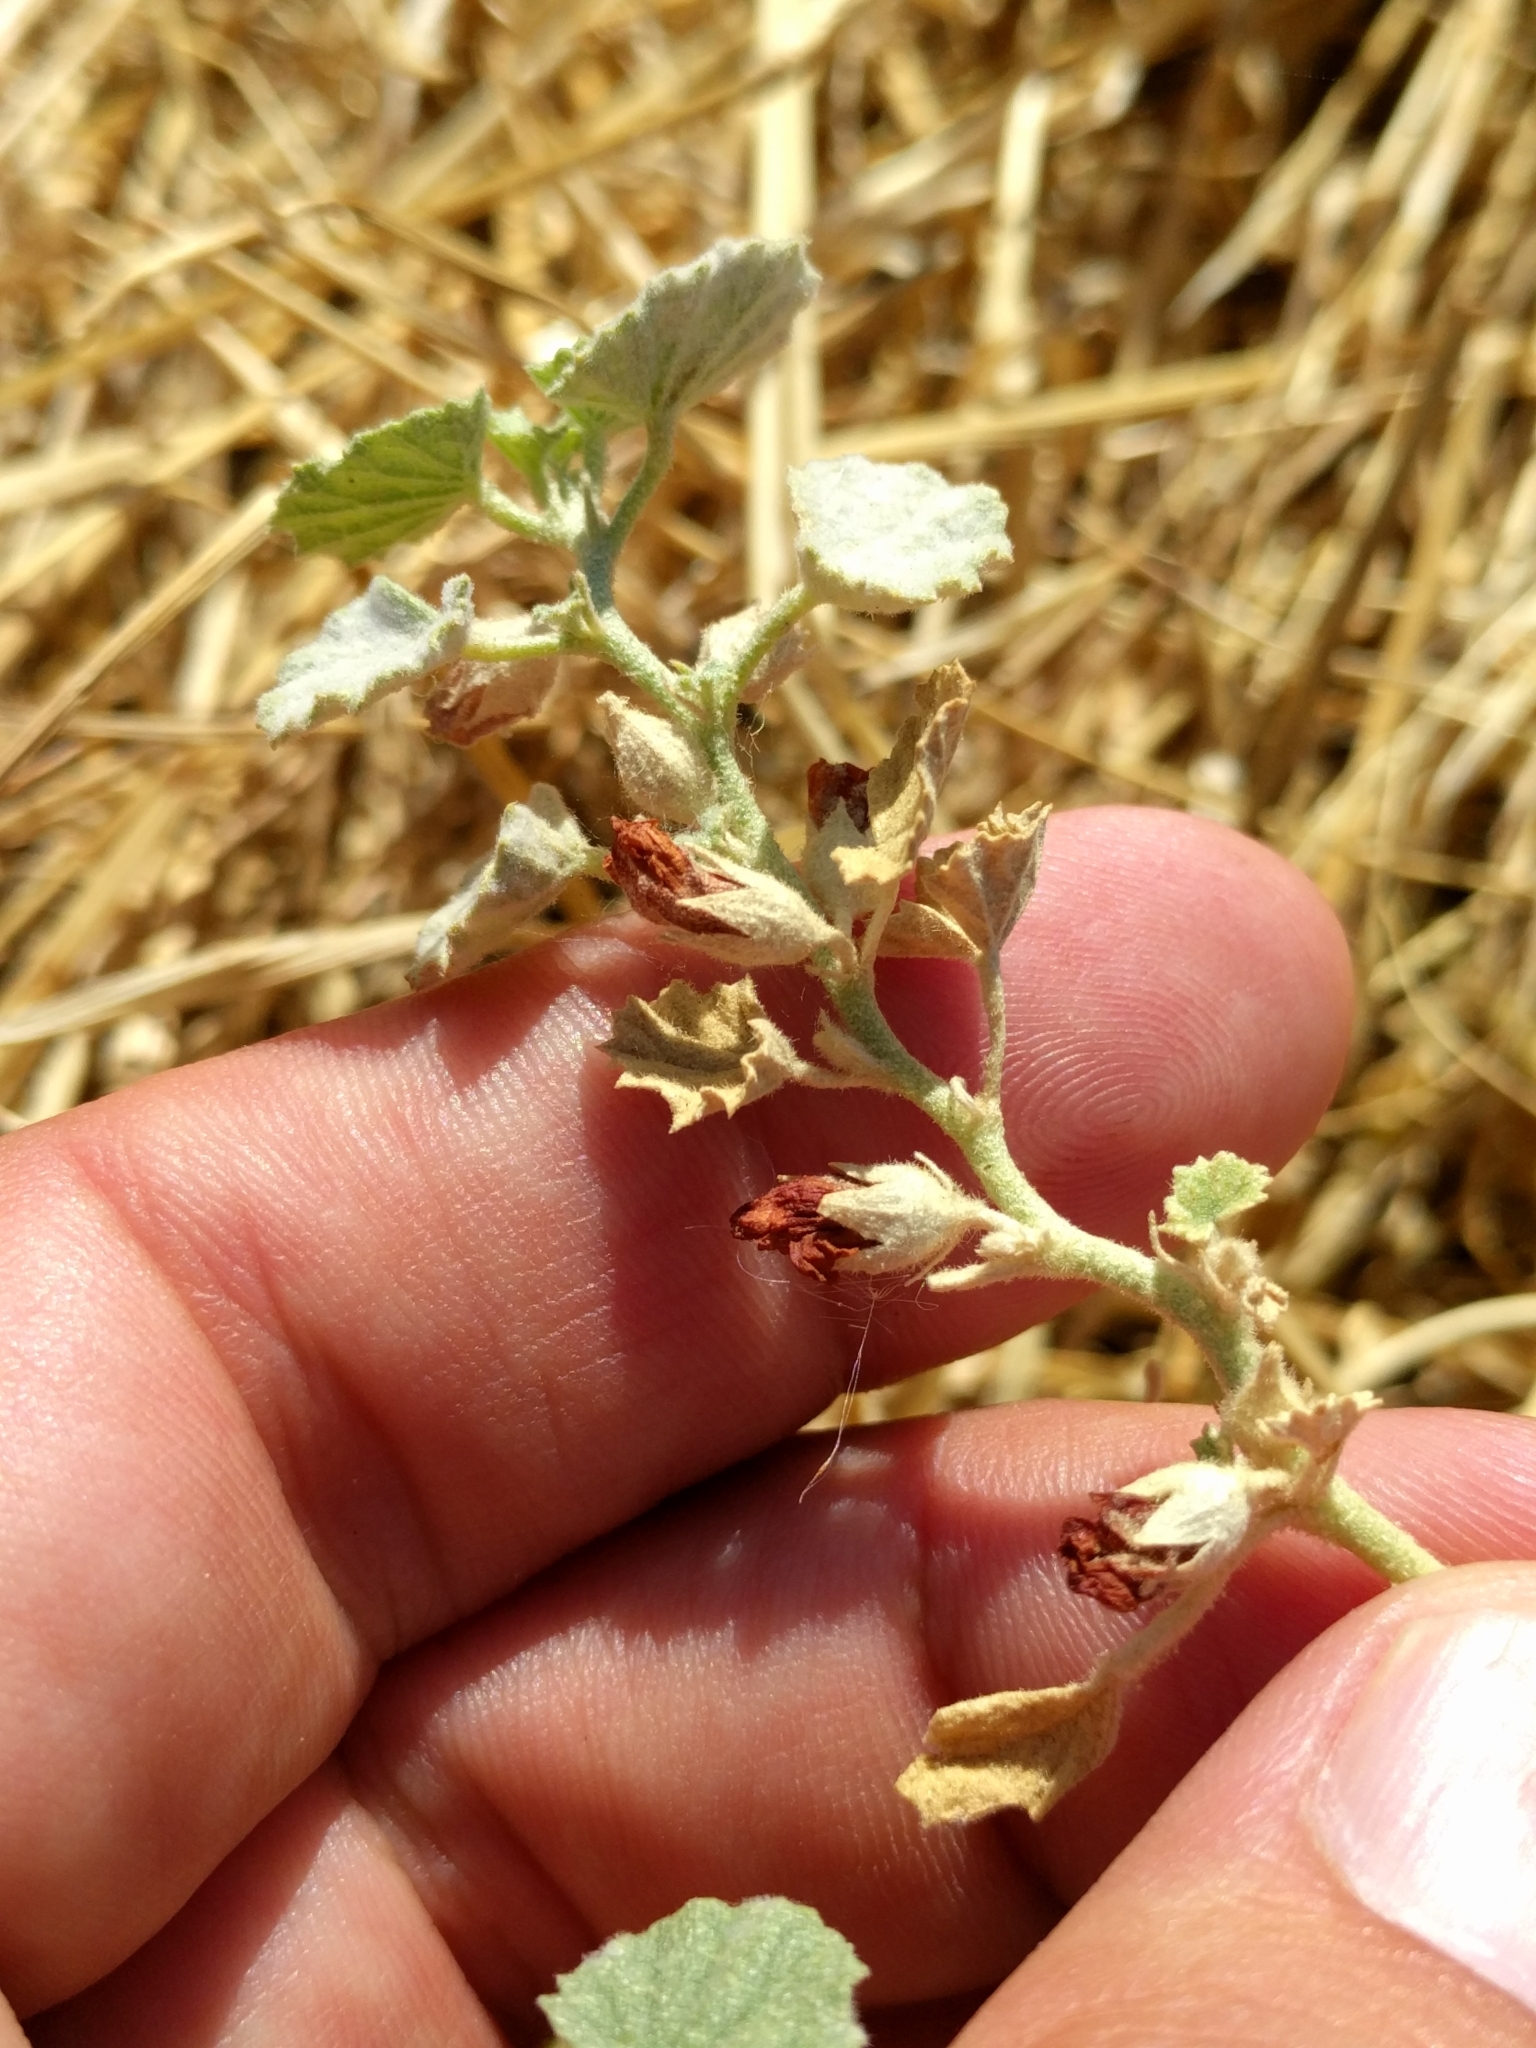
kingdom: Plantae
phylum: Tracheophyta
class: Magnoliopsida
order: Malvales
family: Malvaceae
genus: Malvella
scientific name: Malvella leprosa
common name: Alkali-mallow
